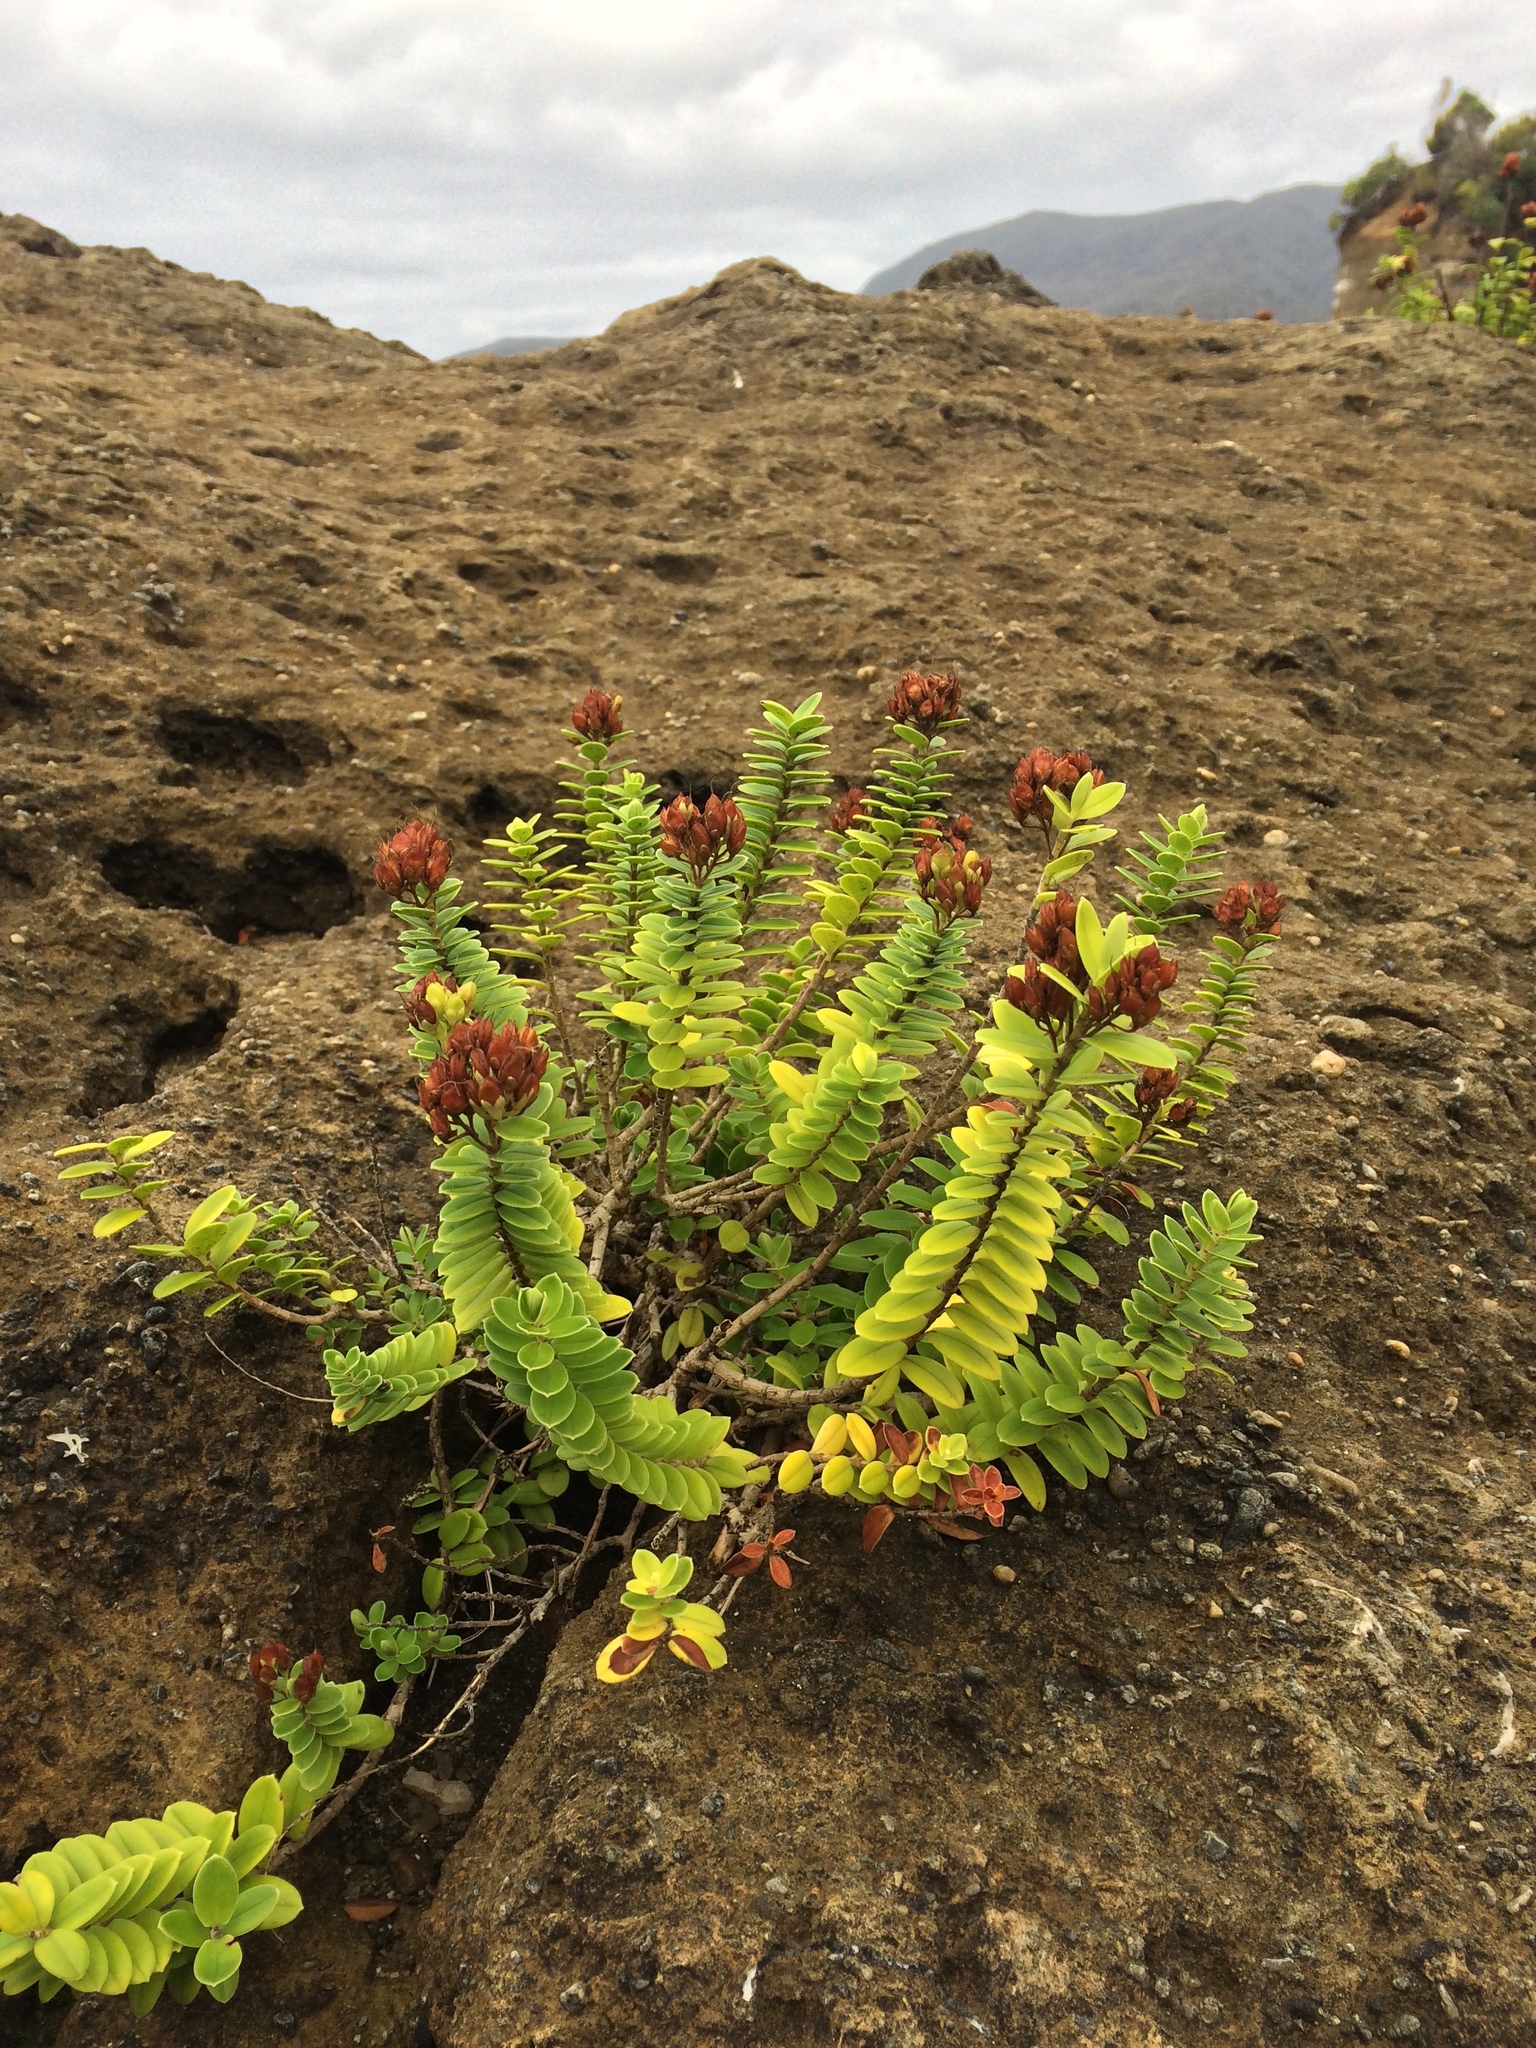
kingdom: Plantae
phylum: Tracheophyta
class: Magnoliopsida
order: Lamiales
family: Plantaginaceae
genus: Veronica
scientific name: Veronica elliptica
